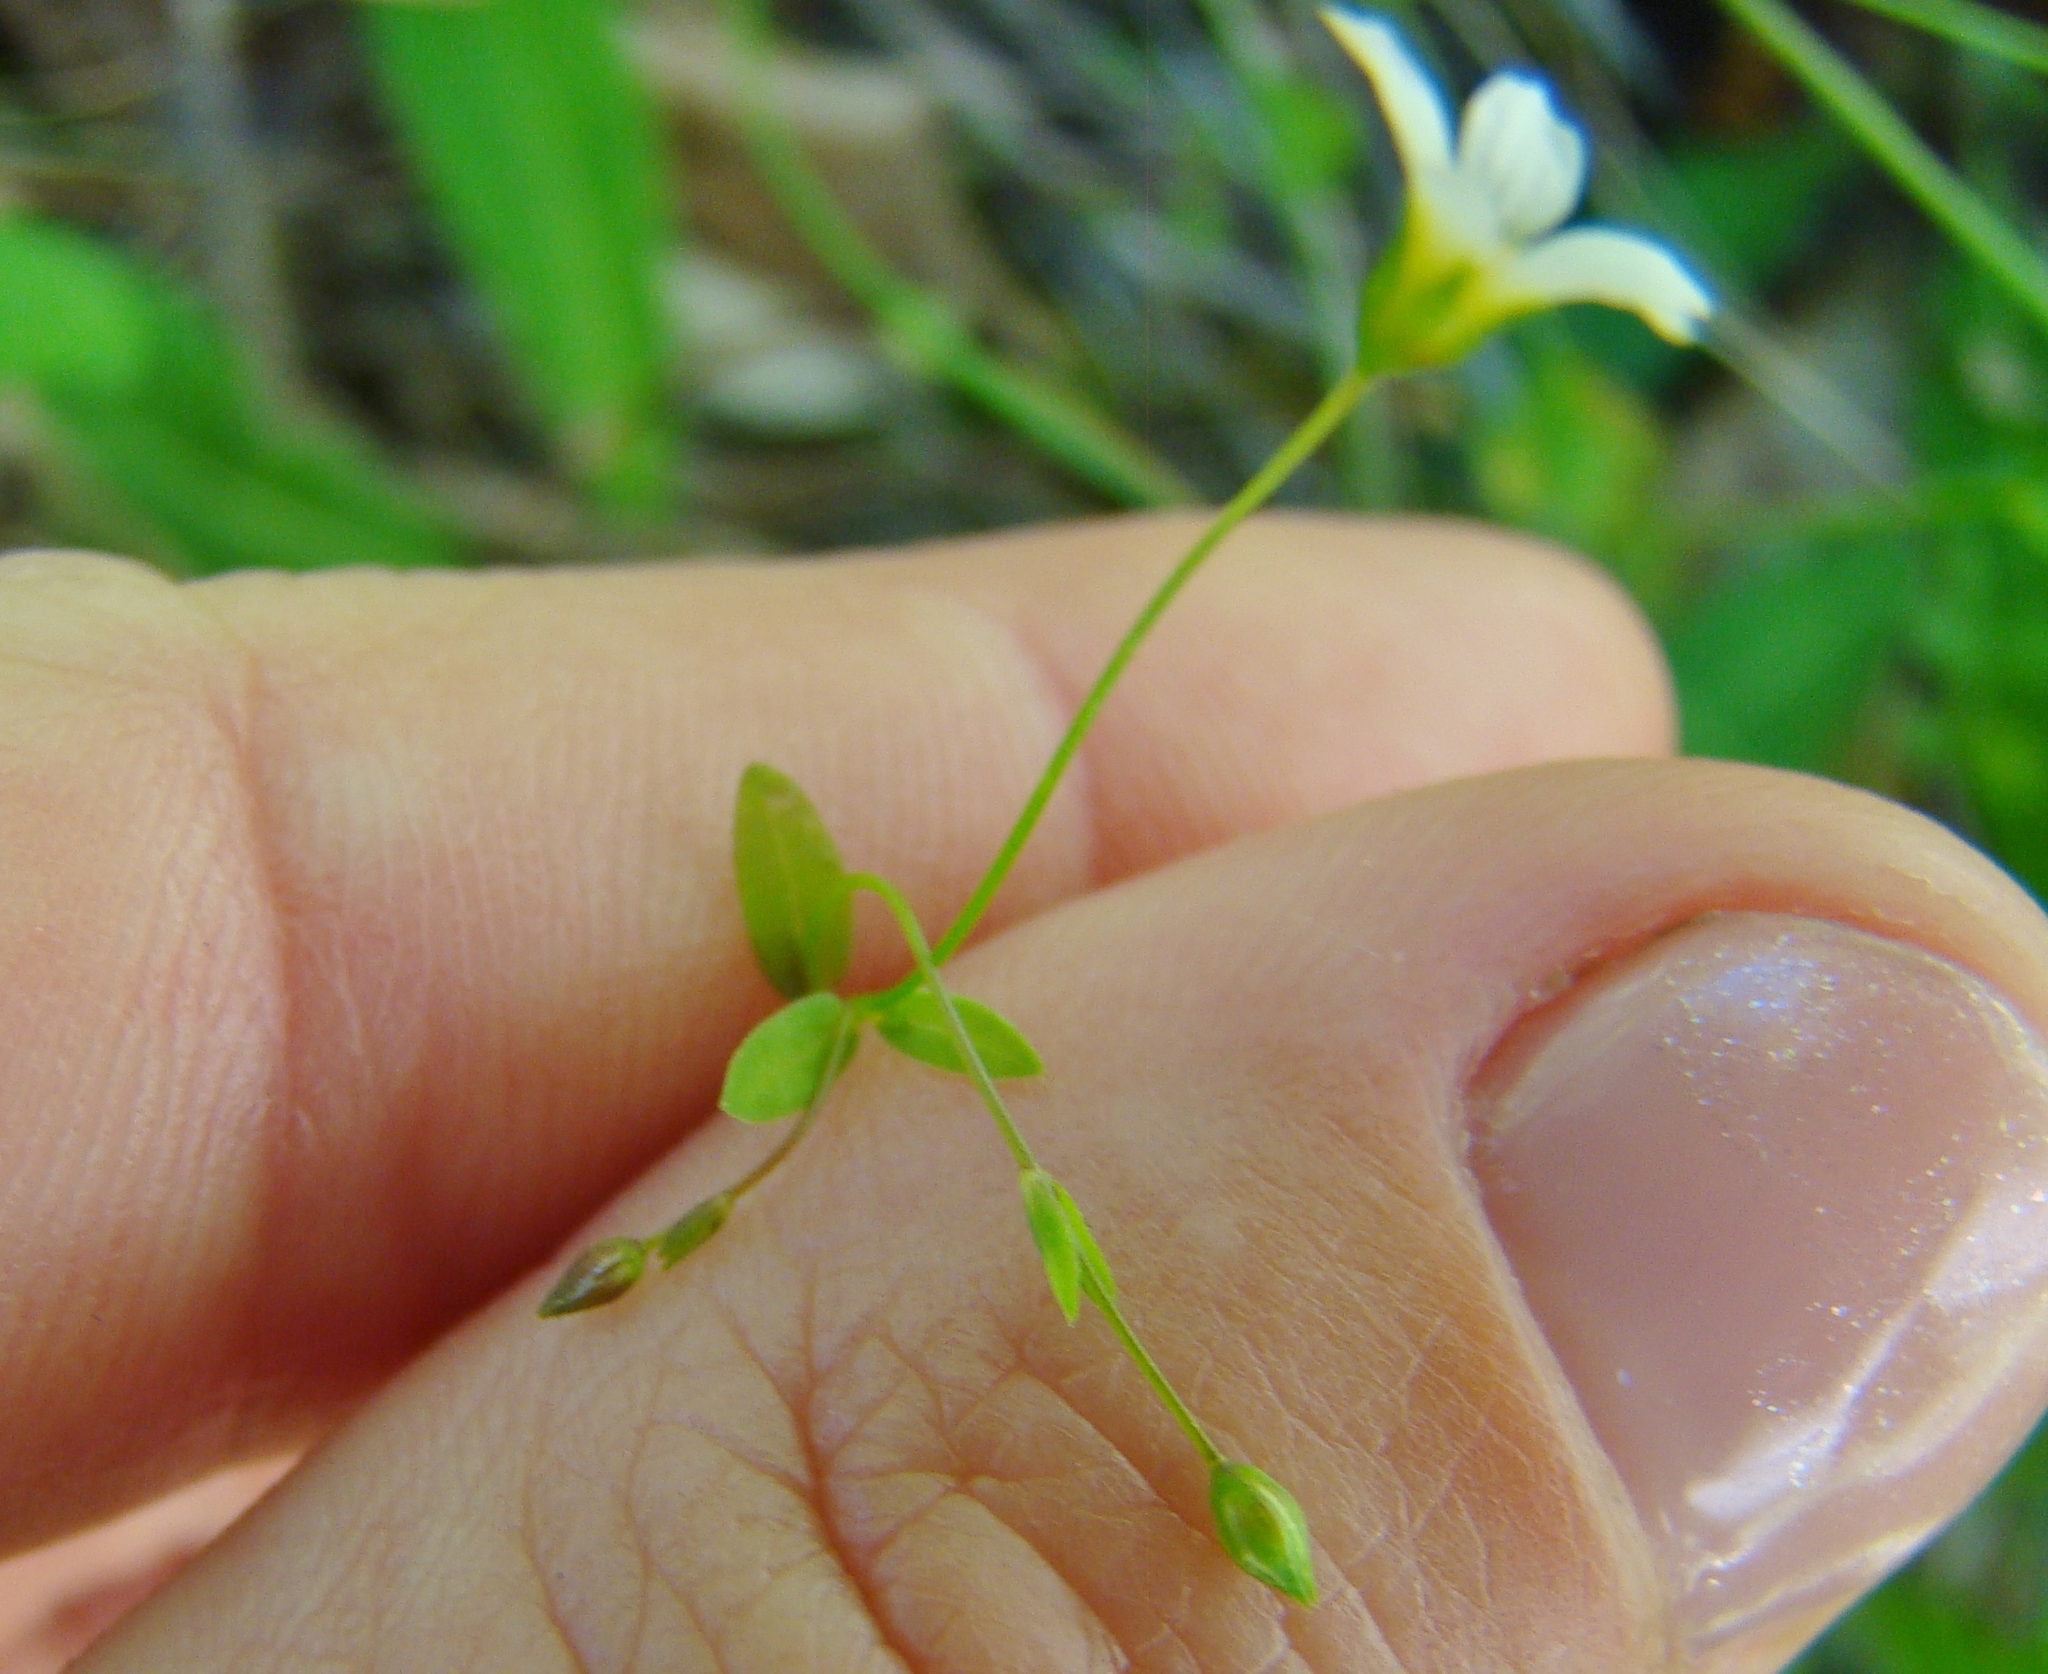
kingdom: Plantae
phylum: Tracheophyta
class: Magnoliopsida
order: Asterales
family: Campanulaceae
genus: Wahlenbergia
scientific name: Wahlenbergia ramosa
